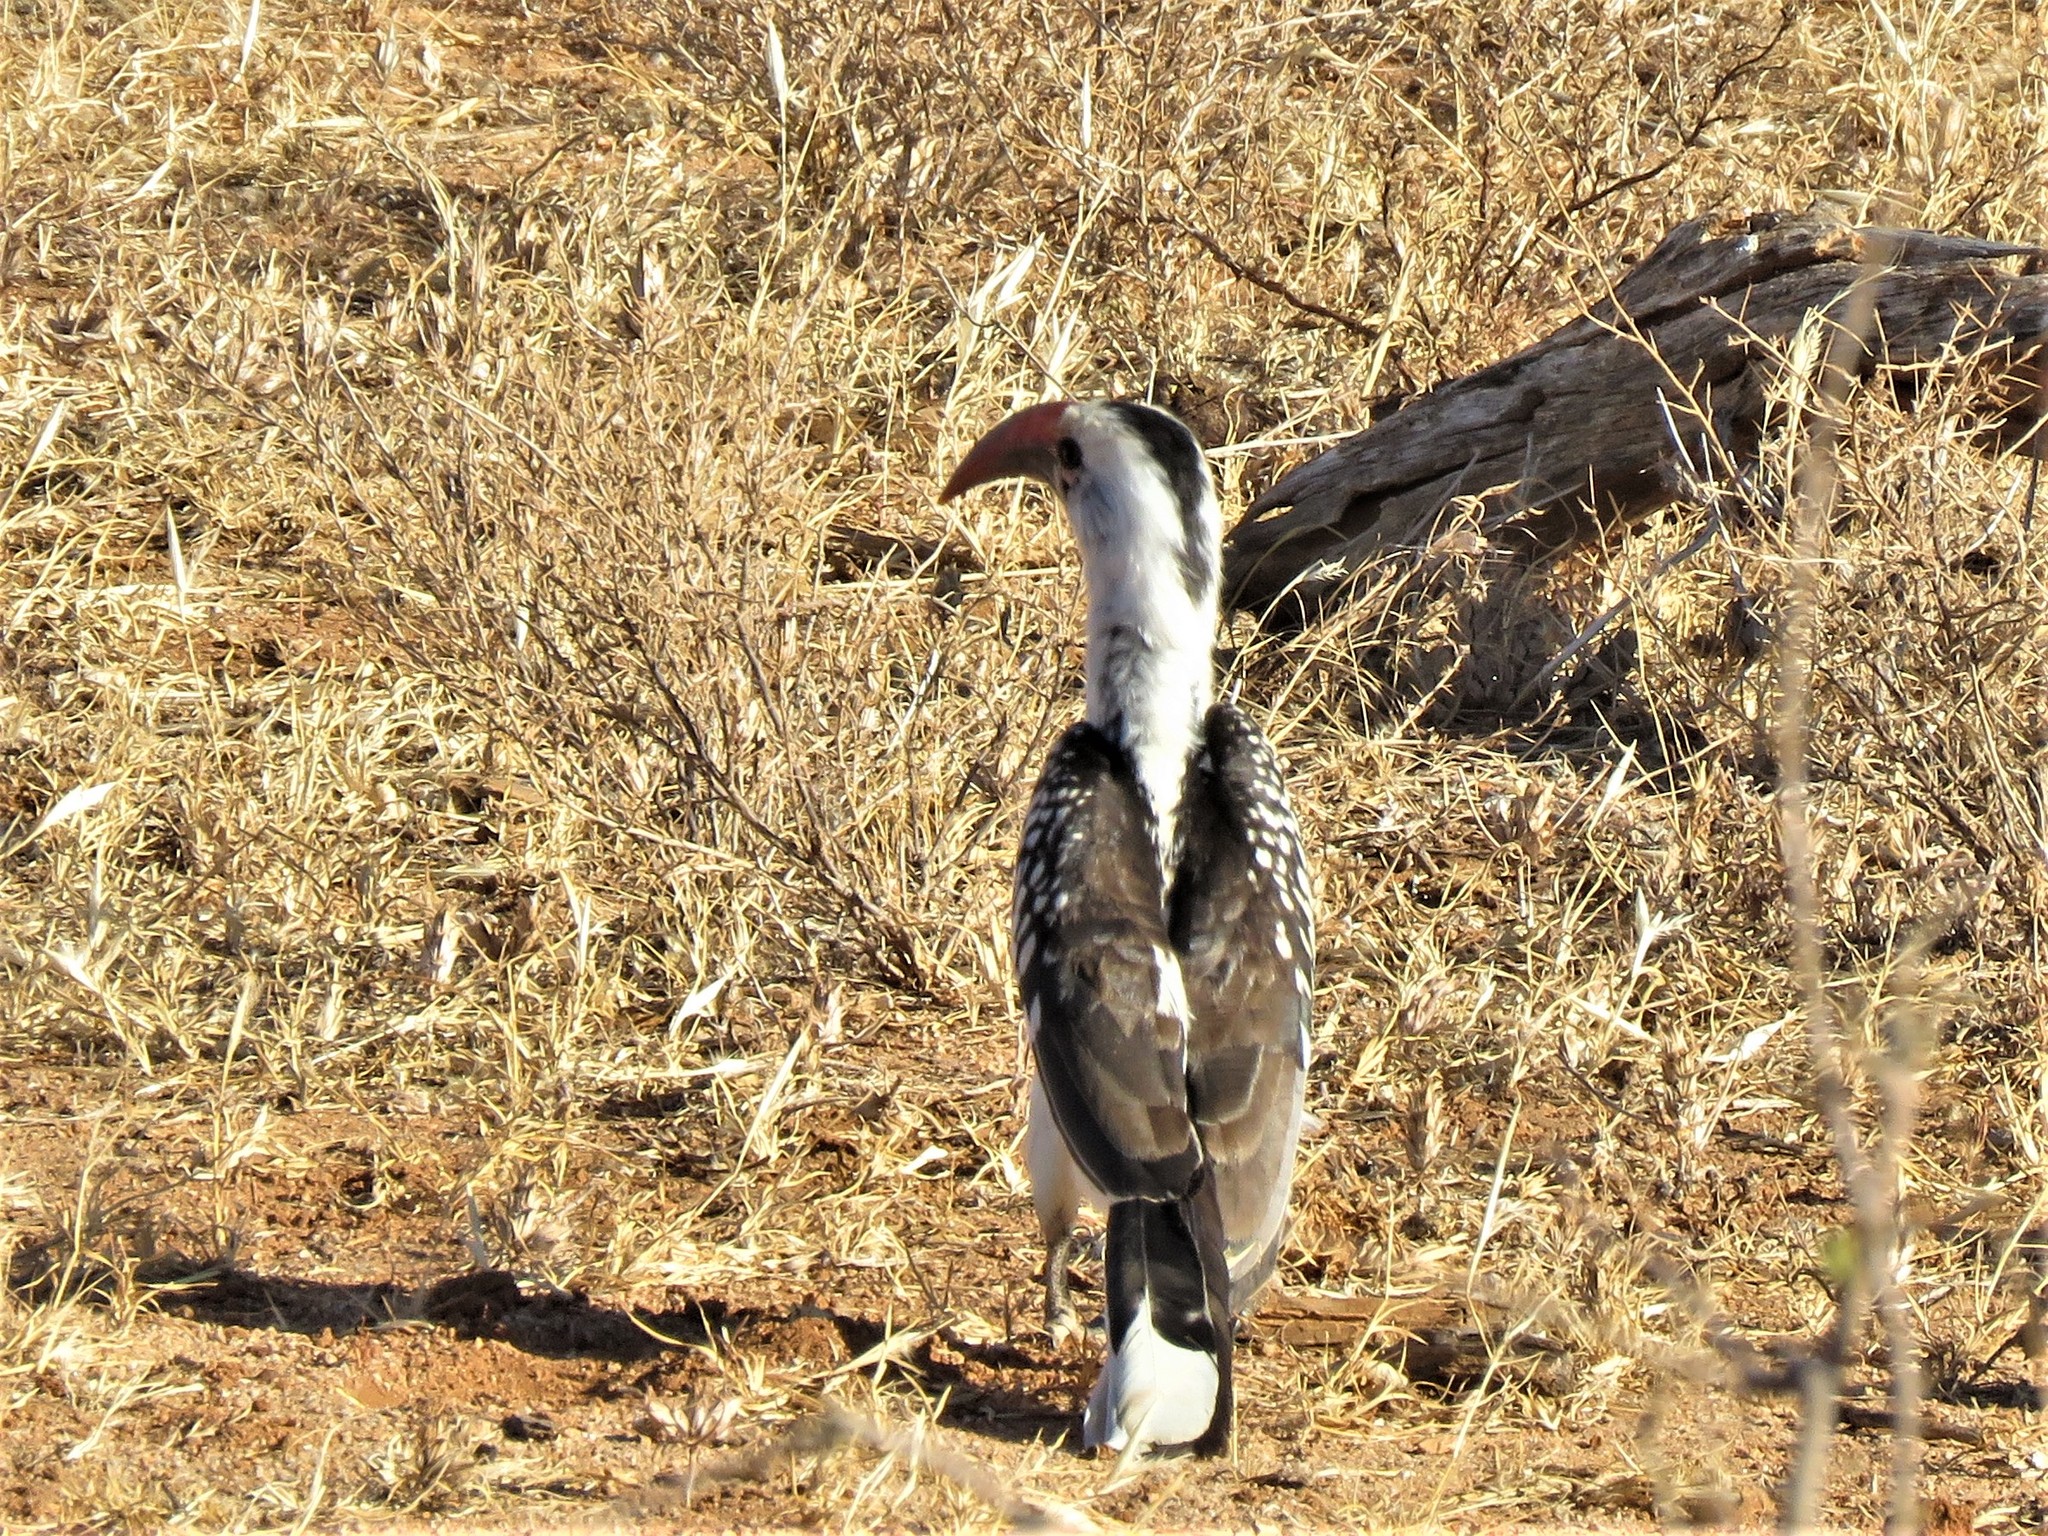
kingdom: Animalia
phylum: Chordata
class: Aves
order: Bucerotiformes
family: Bucerotidae
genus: Tockus
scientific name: Tockus erythrorhynchus
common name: Northern red-billed hornbill
